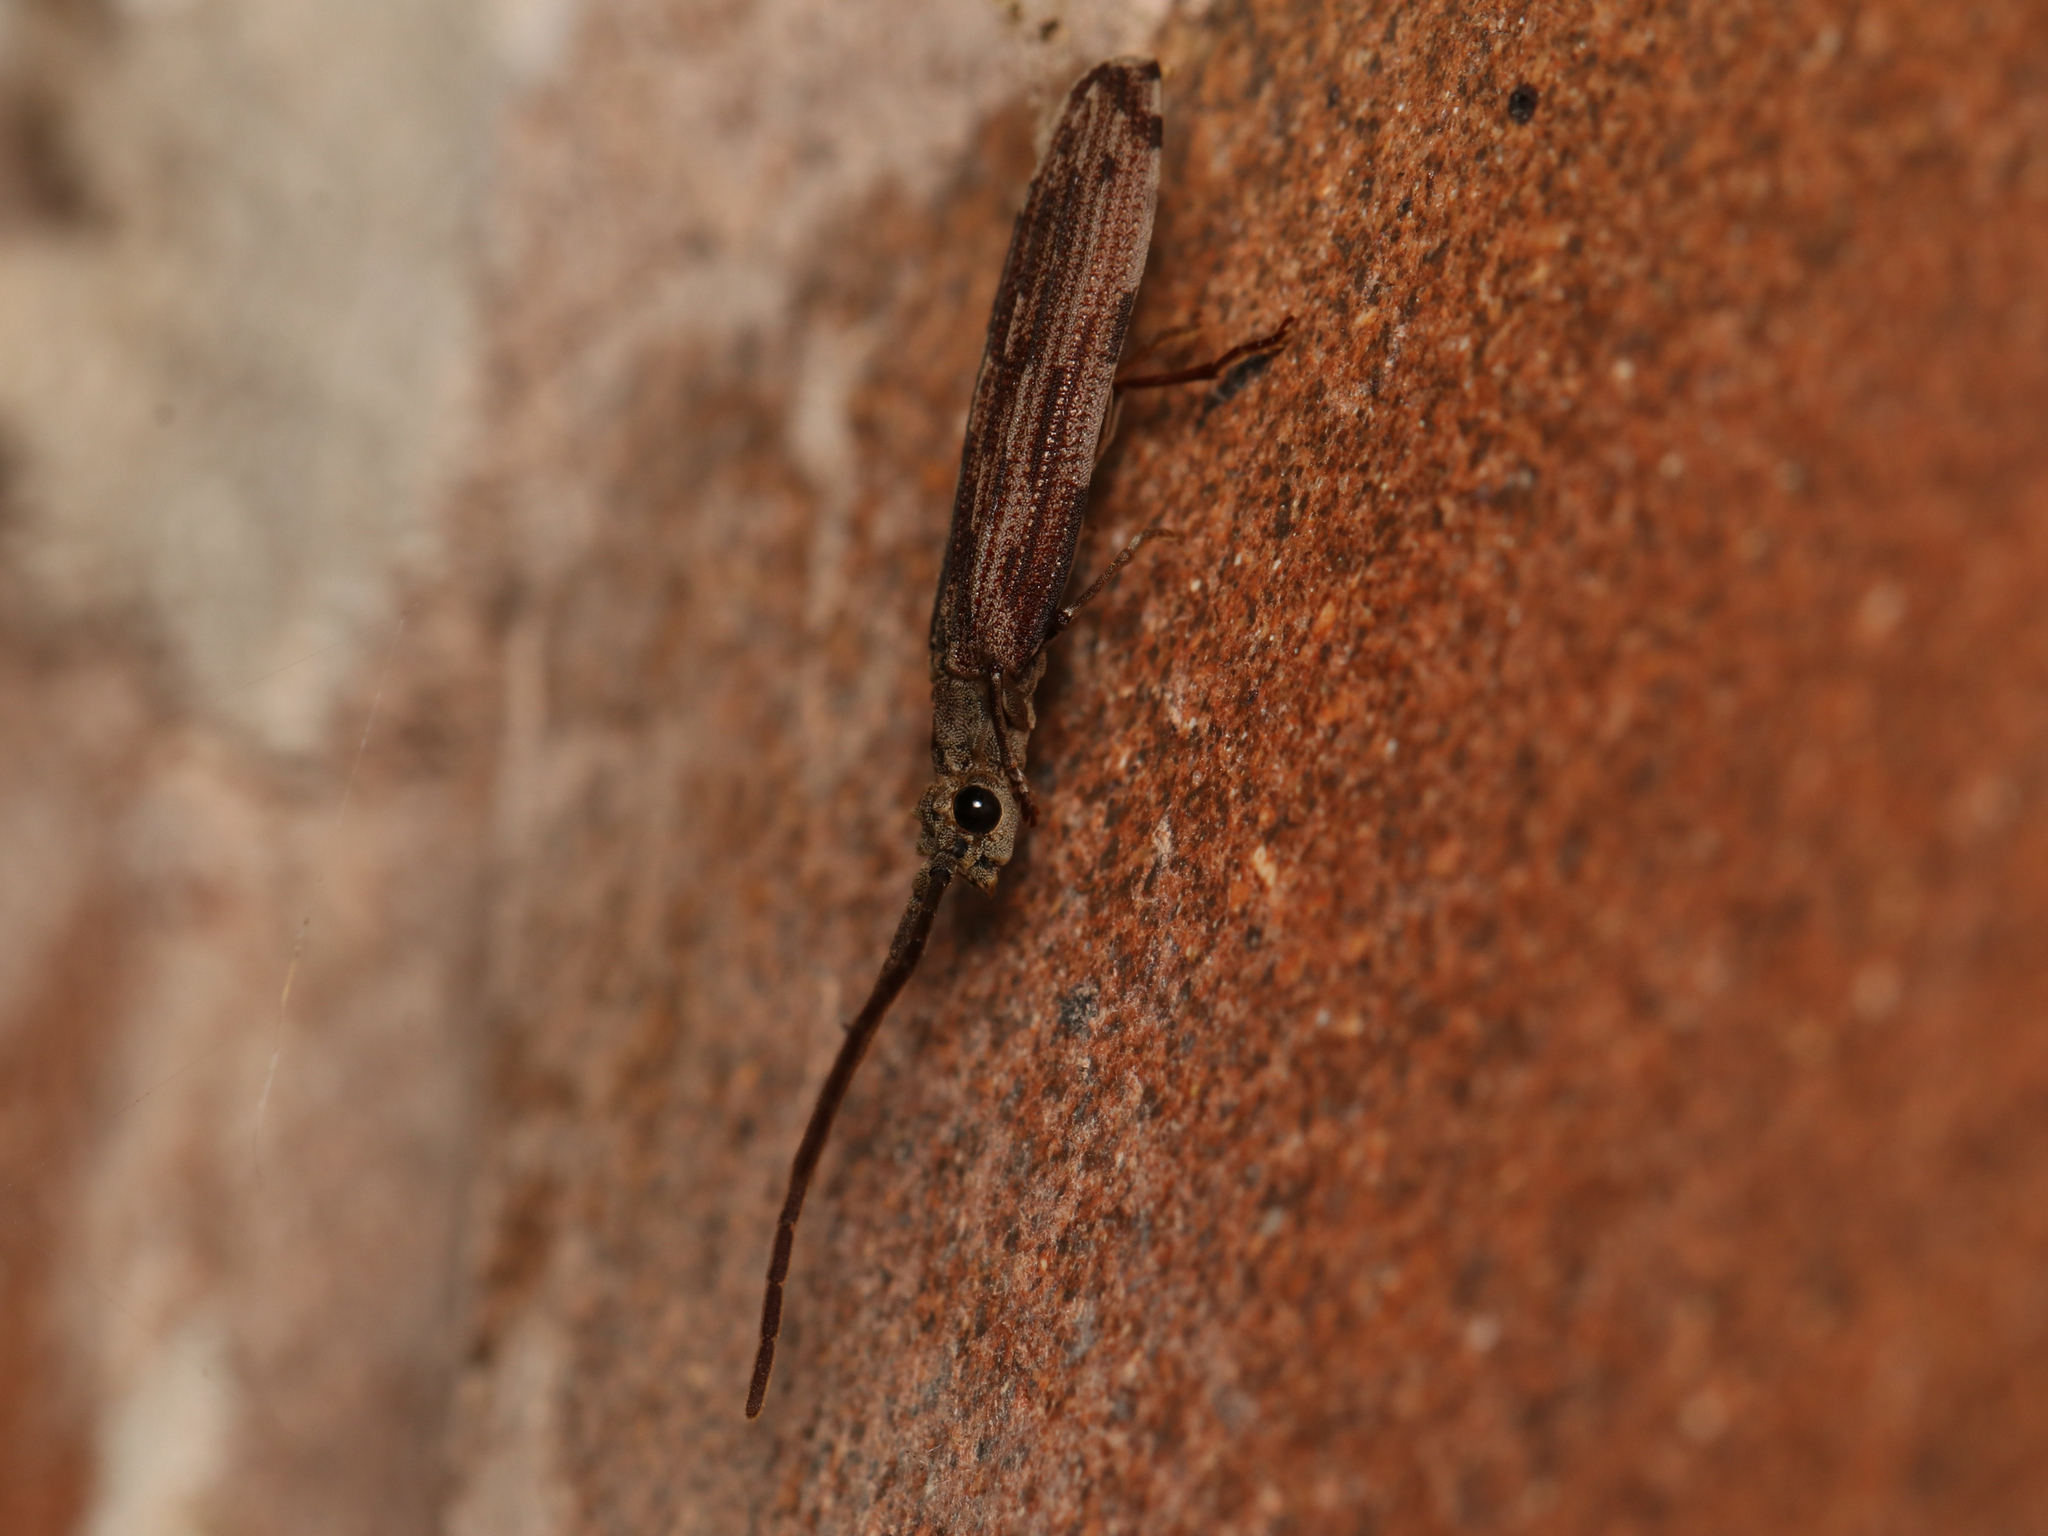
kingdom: Animalia
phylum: Arthropoda
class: Insecta
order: Coleoptera
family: Cupedidae
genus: Tenomerga
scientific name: Tenomerga cinerea
